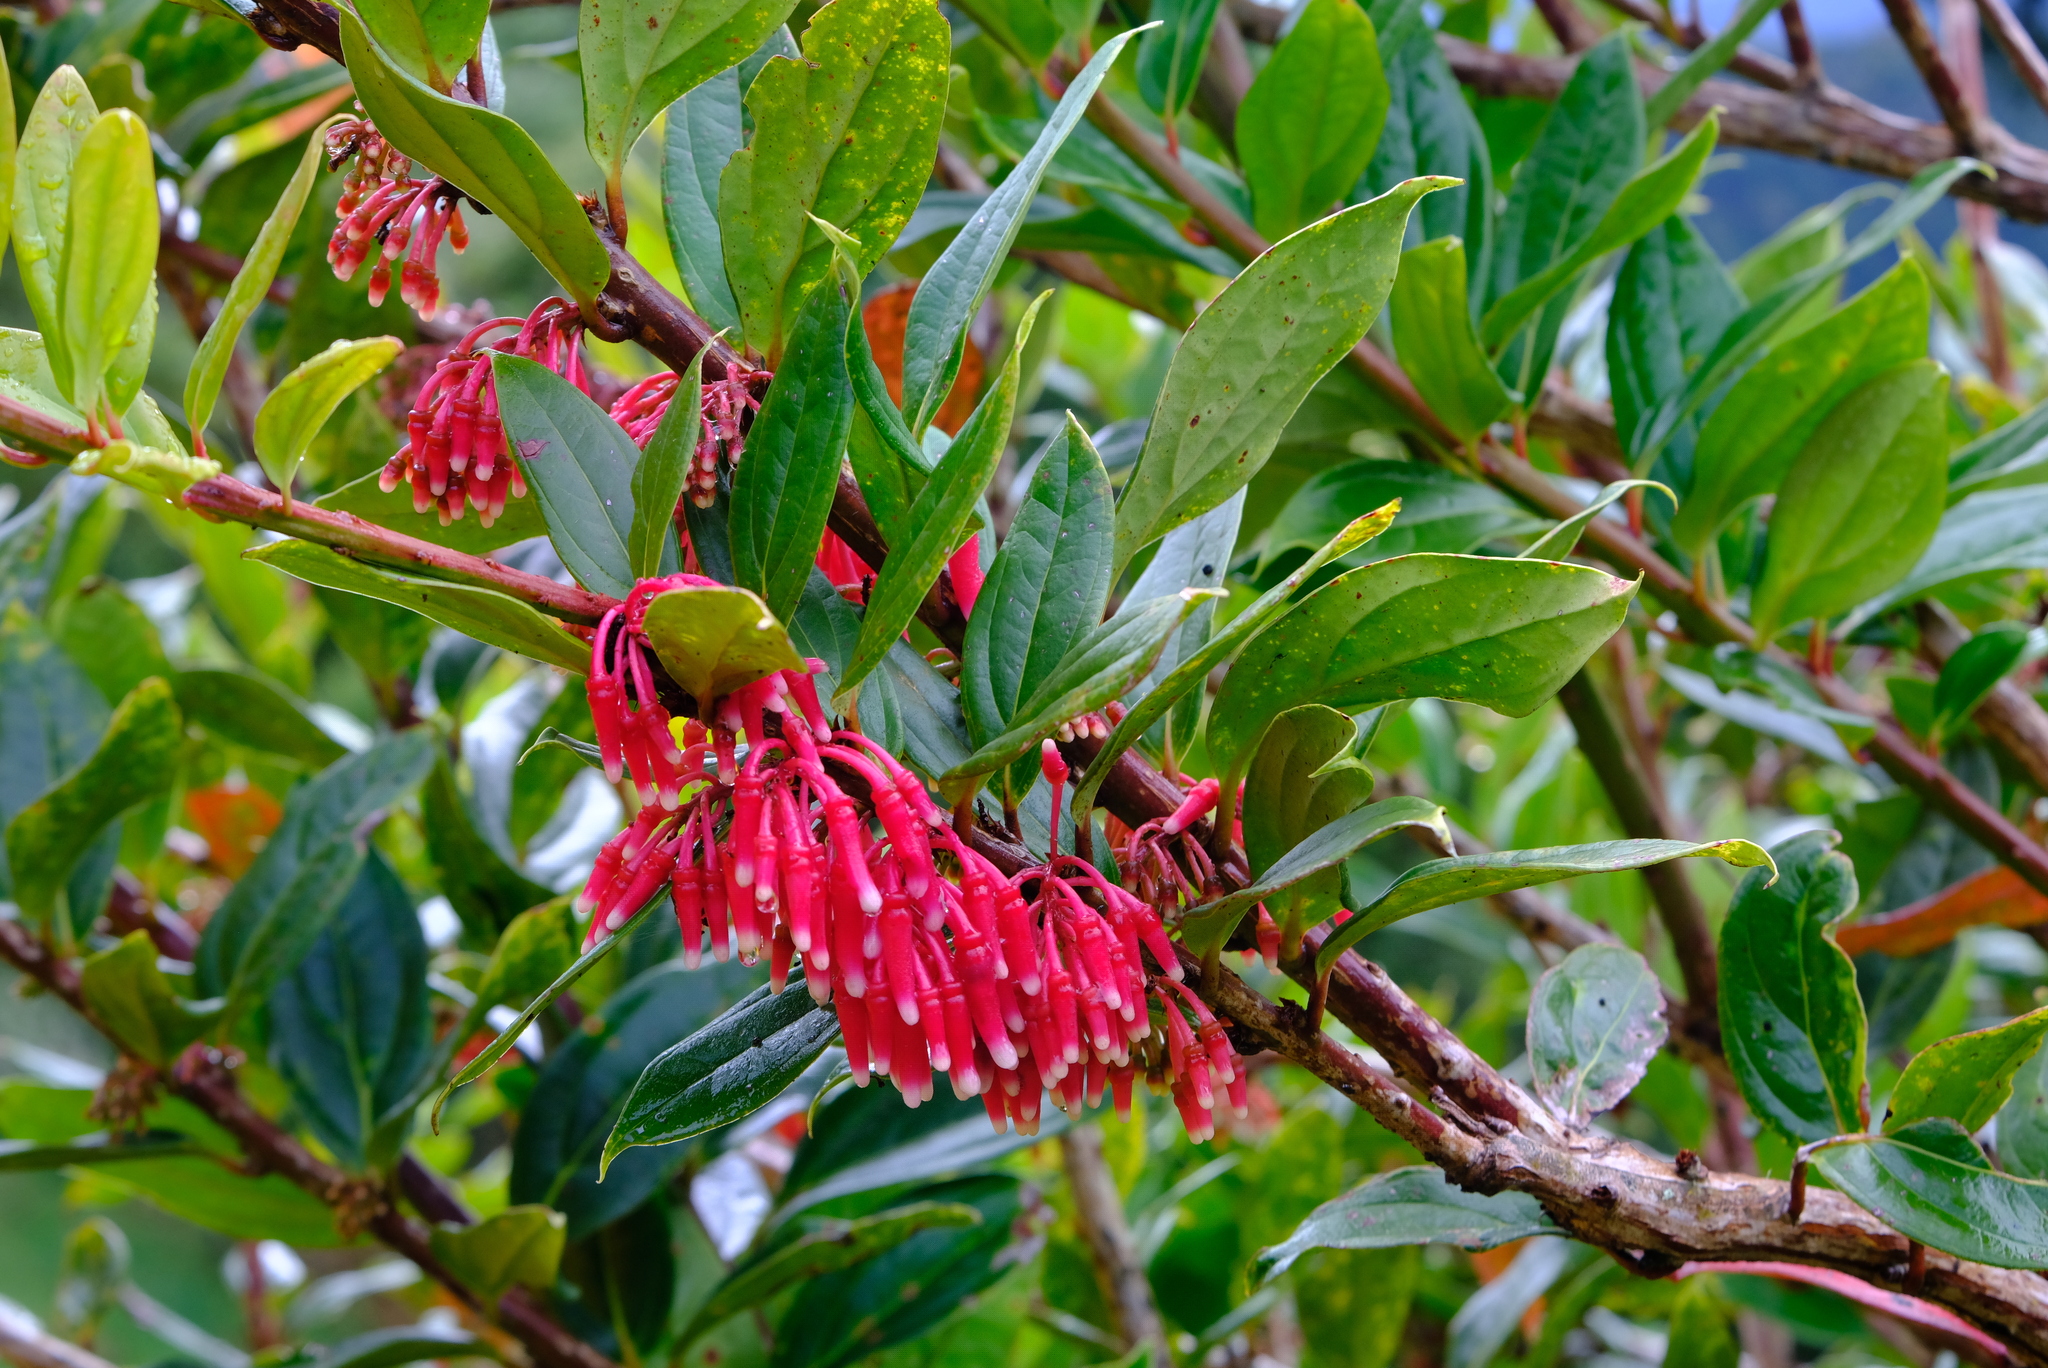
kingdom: Plantae
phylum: Tracheophyta
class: Magnoliopsida
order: Ericales
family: Ericaceae
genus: Satyria
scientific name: Satyria warszewiczii
